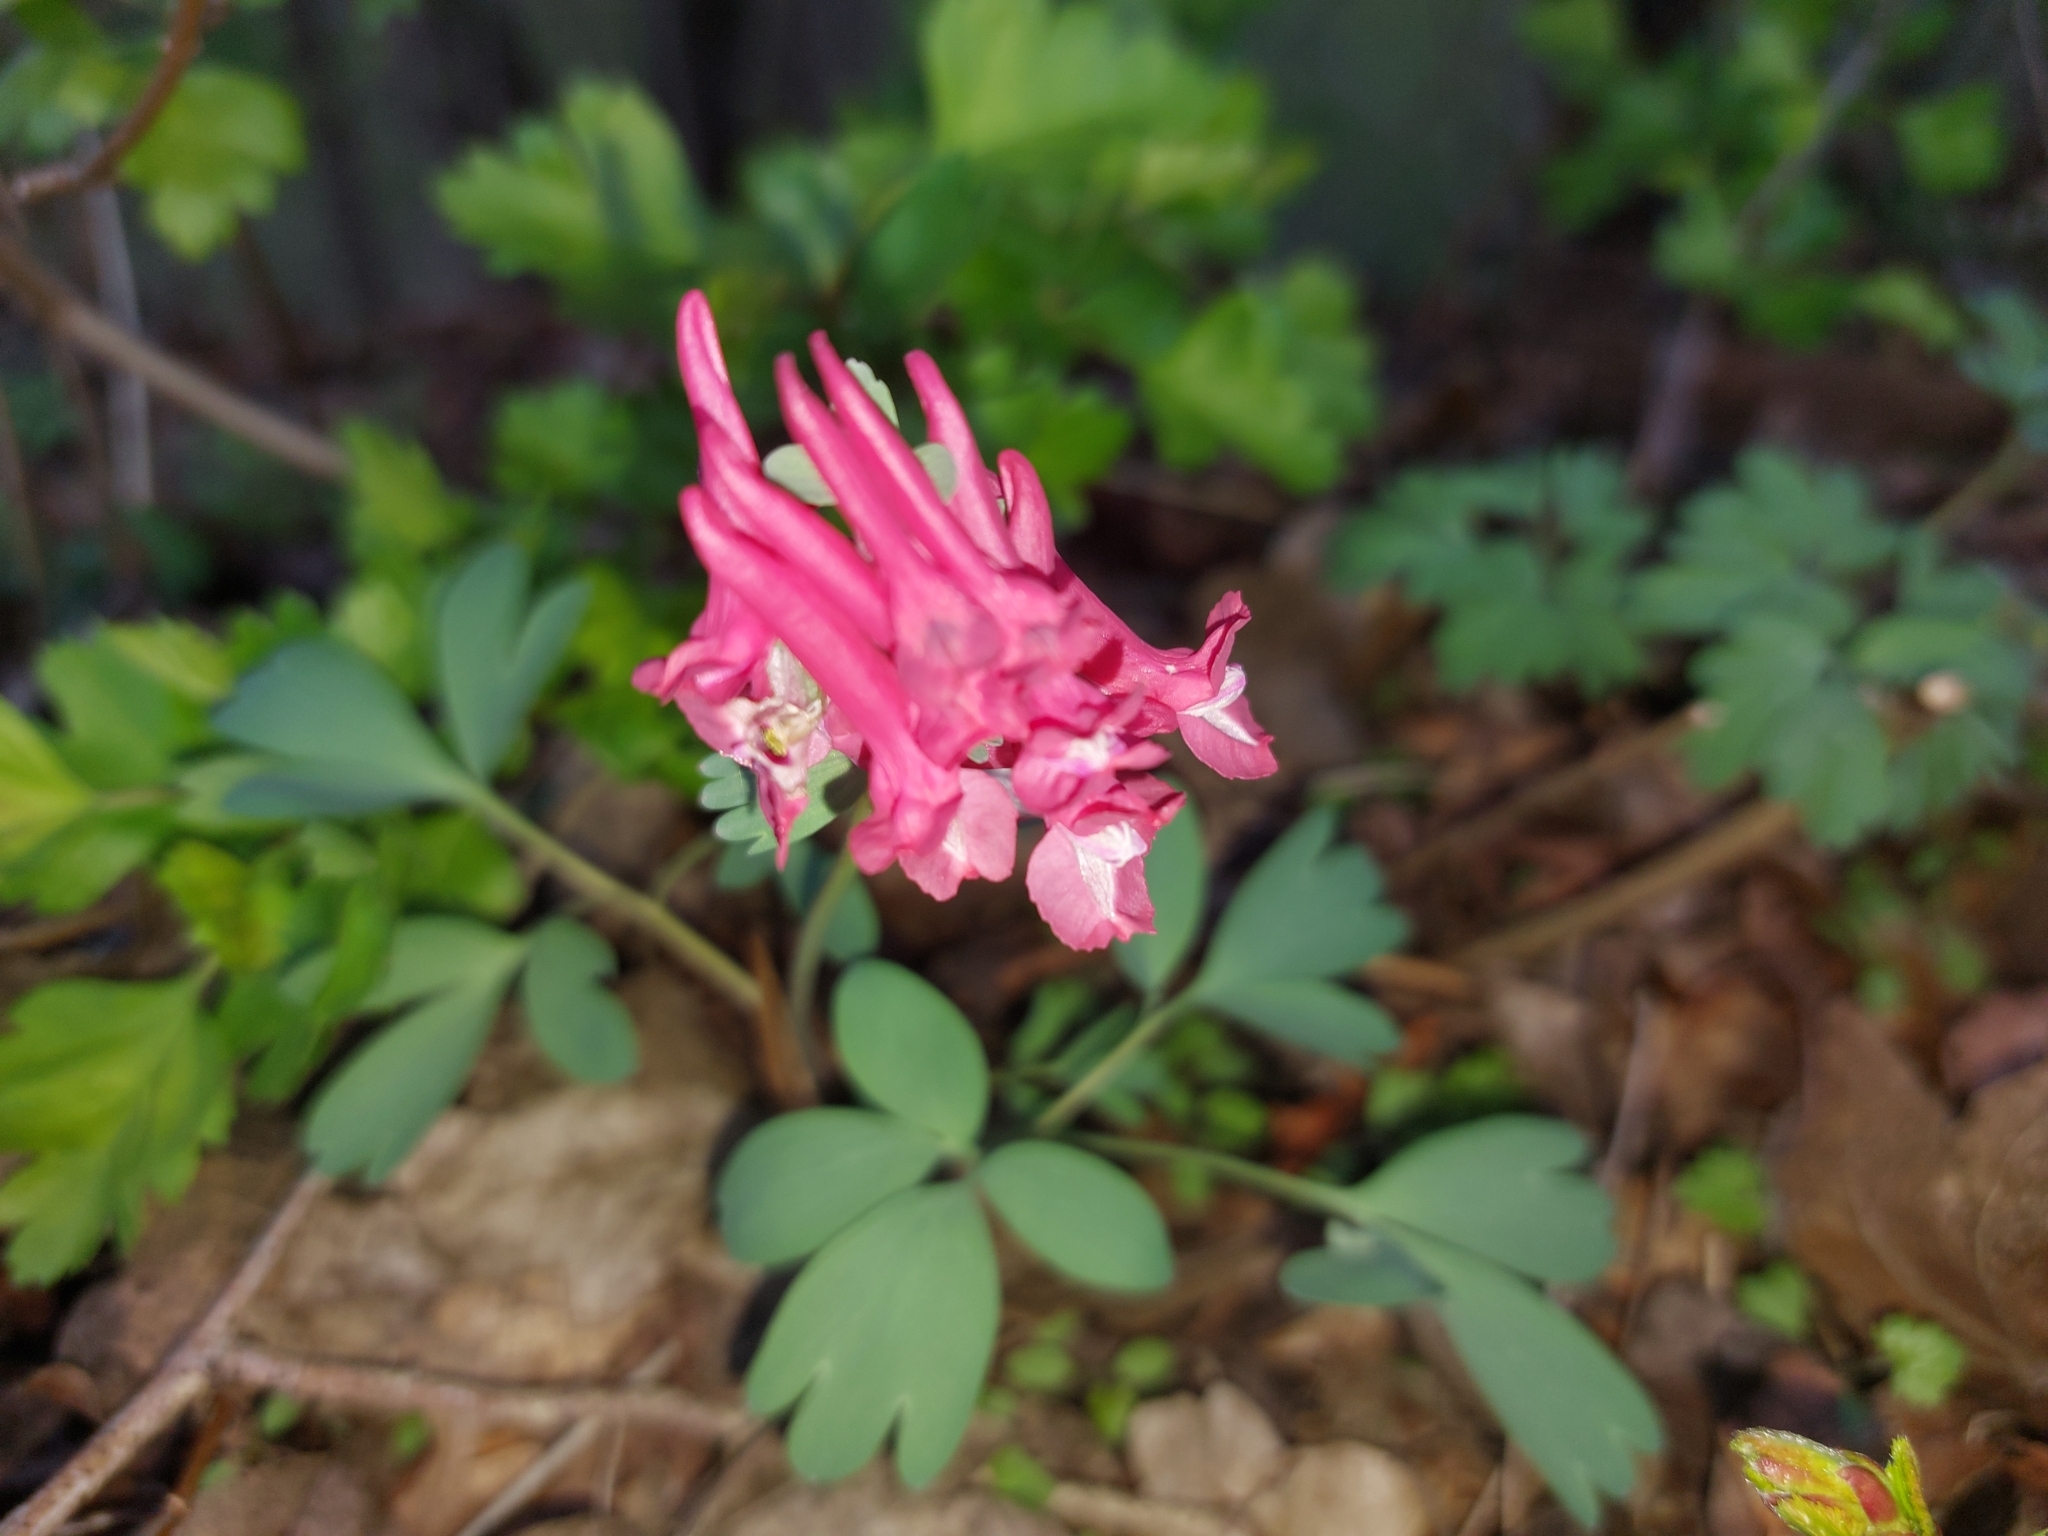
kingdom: Plantae
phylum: Tracheophyta
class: Magnoliopsida
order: Ranunculales
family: Papaveraceae
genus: Corydalis
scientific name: Corydalis solida
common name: Bird-in-a-bush
